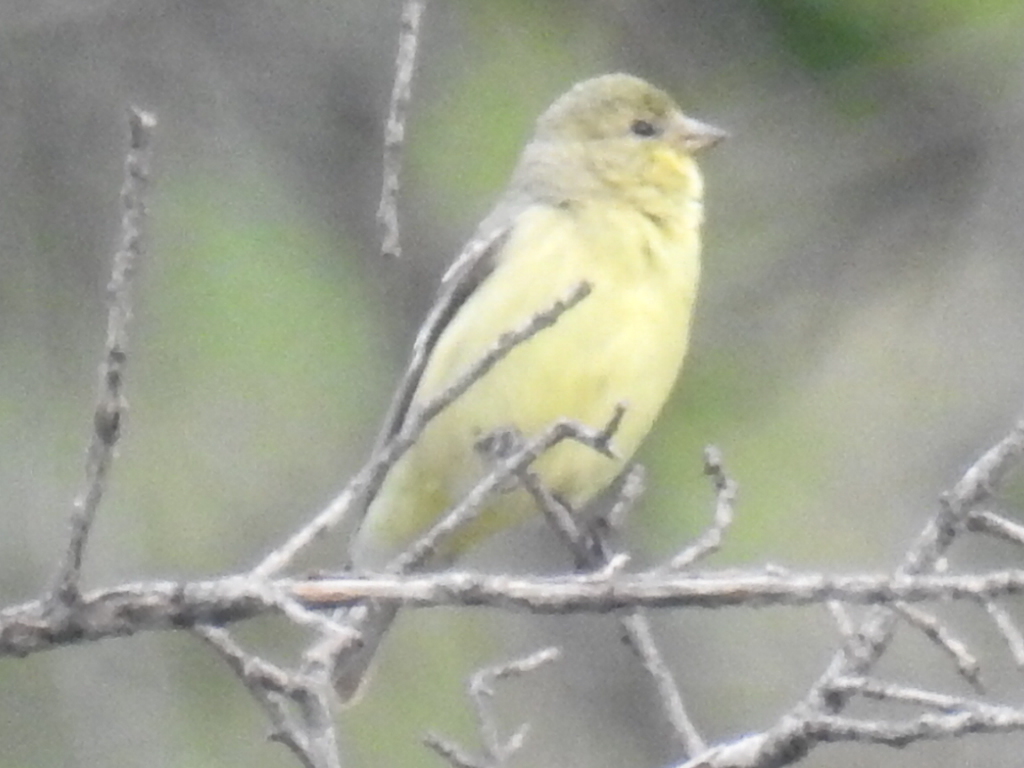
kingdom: Animalia
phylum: Chordata
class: Aves
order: Passeriformes
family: Fringillidae
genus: Spinus
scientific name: Spinus psaltria
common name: Lesser goldfinch
